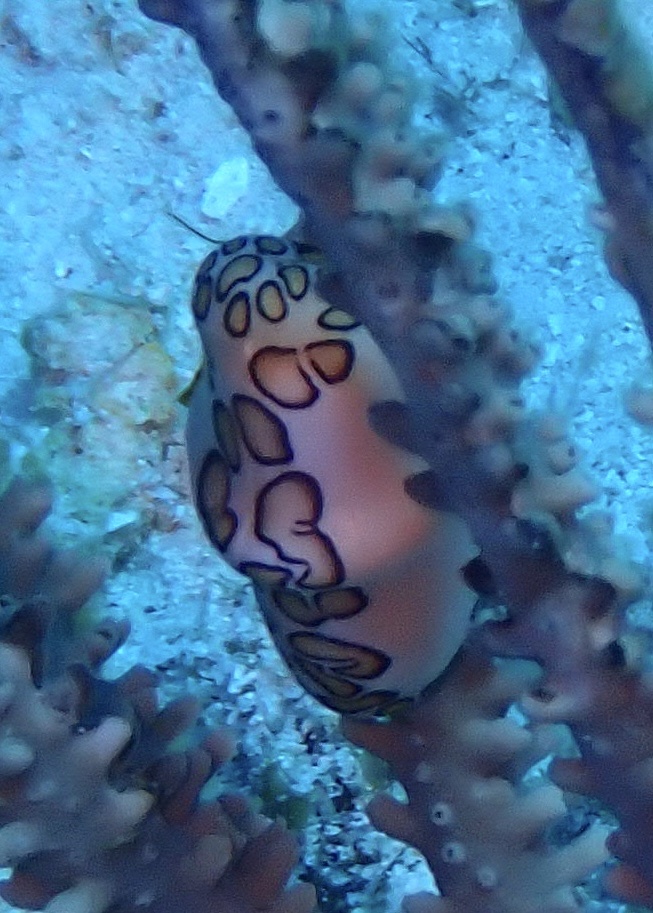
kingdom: Animalia
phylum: Mollusca
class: Gastropoda
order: Littorinimorpha
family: Ovulidae
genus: Cyphoma
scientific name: Cyphoma gibbosum
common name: Flamingo tongue
